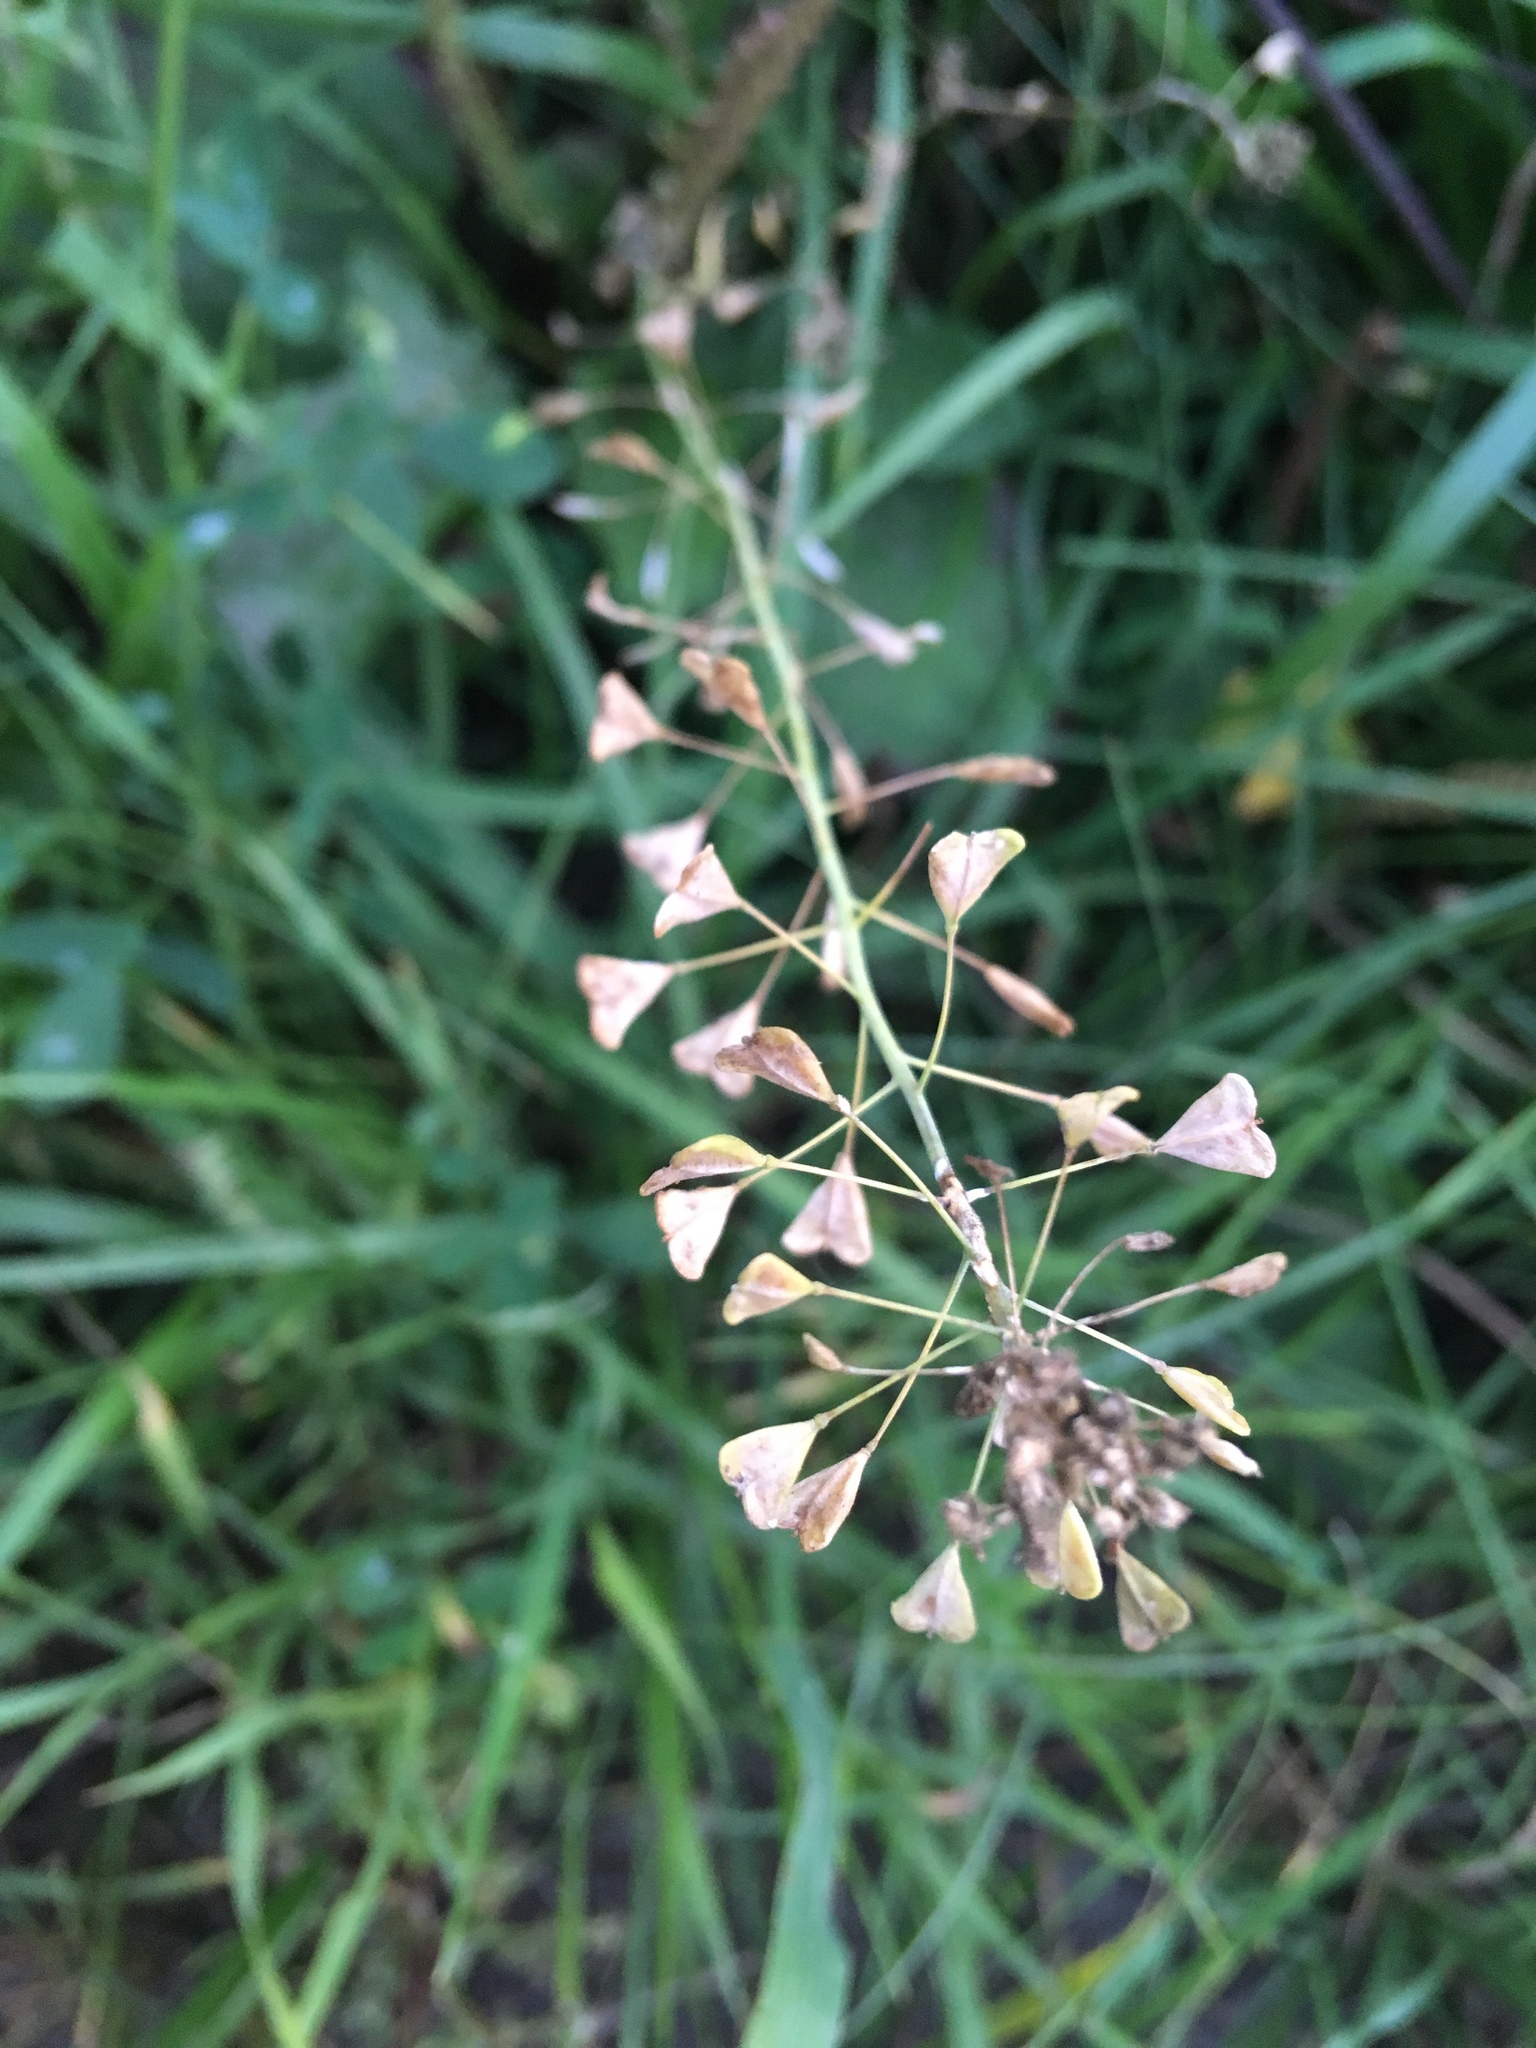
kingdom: Plantae
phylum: Tracheophyta
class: Magnoliopsida
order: Brassicales
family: Brassicaceae
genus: Capsella
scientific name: Capsella bursa-pastoris
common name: Shepherd's purse
